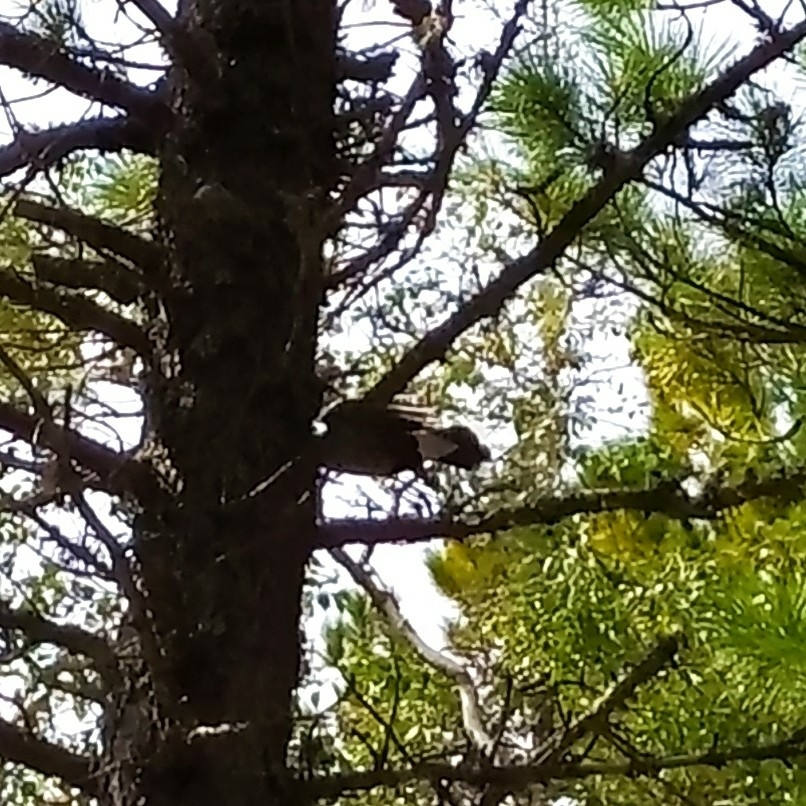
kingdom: Animalia
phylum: Chordata
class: Aves
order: Passeriformes
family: Corvidae
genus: Nucifraga
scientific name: Nucifraga caryocatactes
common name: Spotted nutcracker
